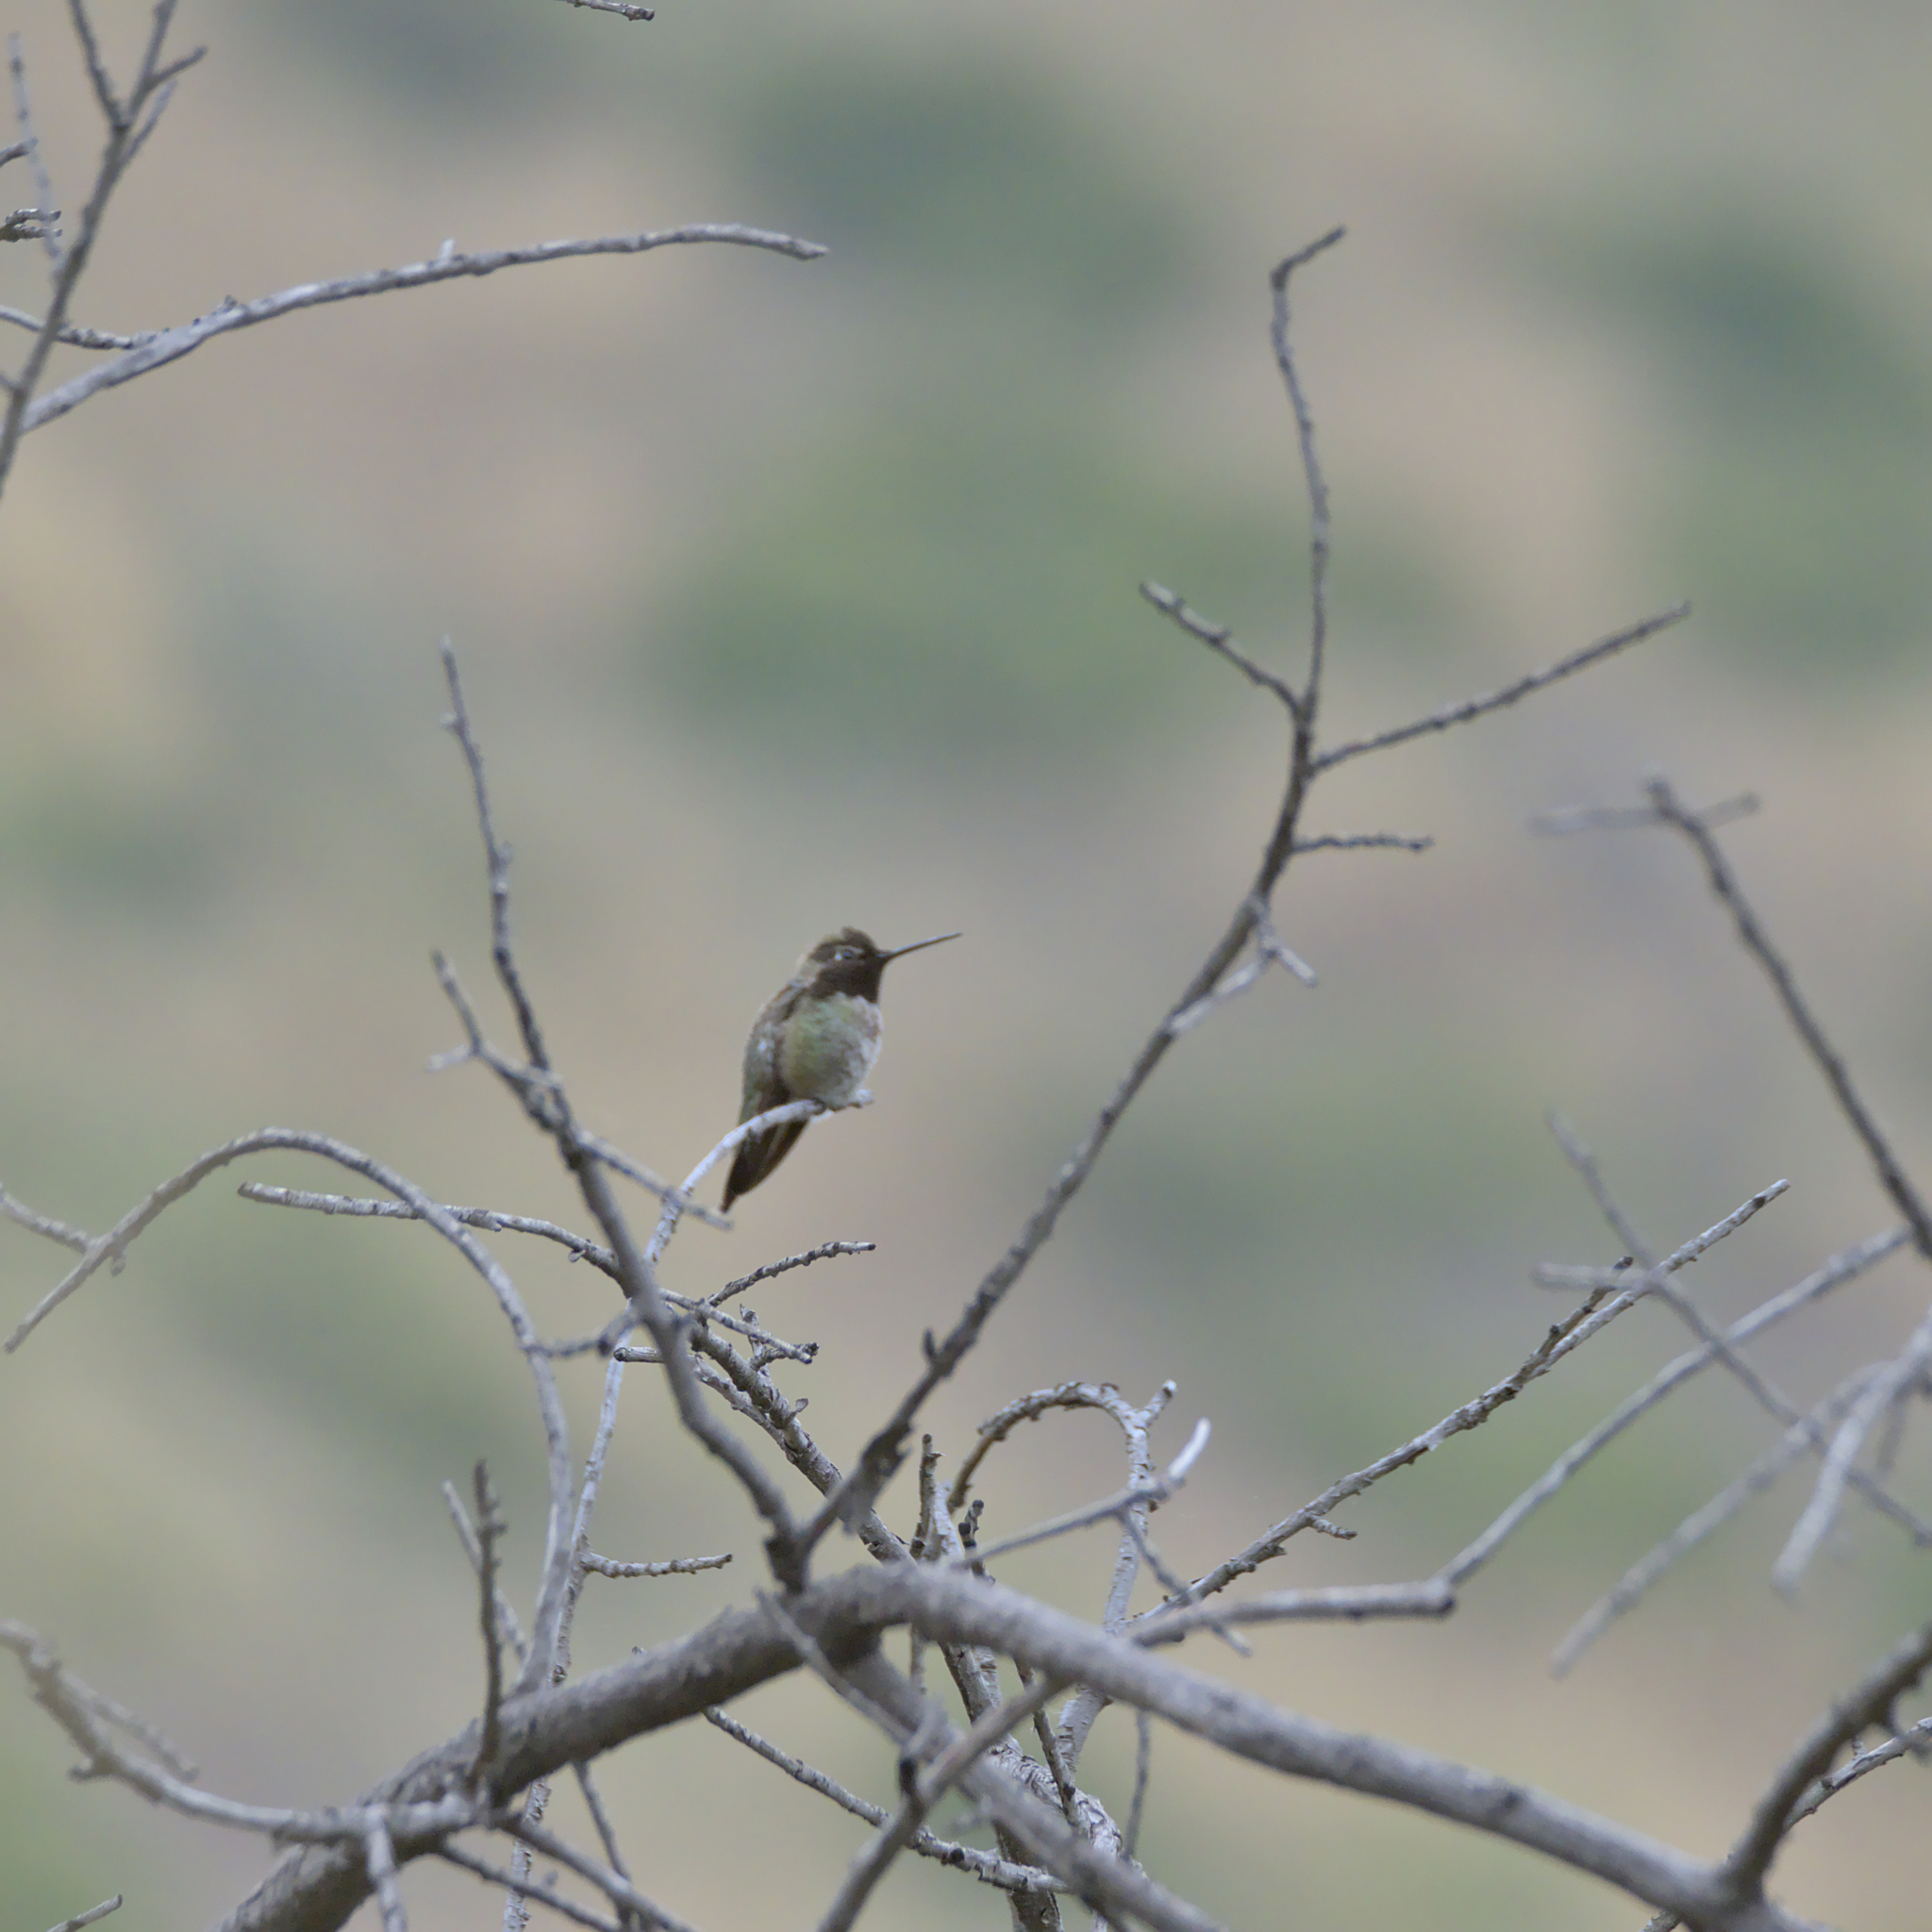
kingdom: Animalia
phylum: Chordata
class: Aves
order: Apodiformes
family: Trochilidae
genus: Calypte
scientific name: Calypte anna
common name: Anna's hummingbird
